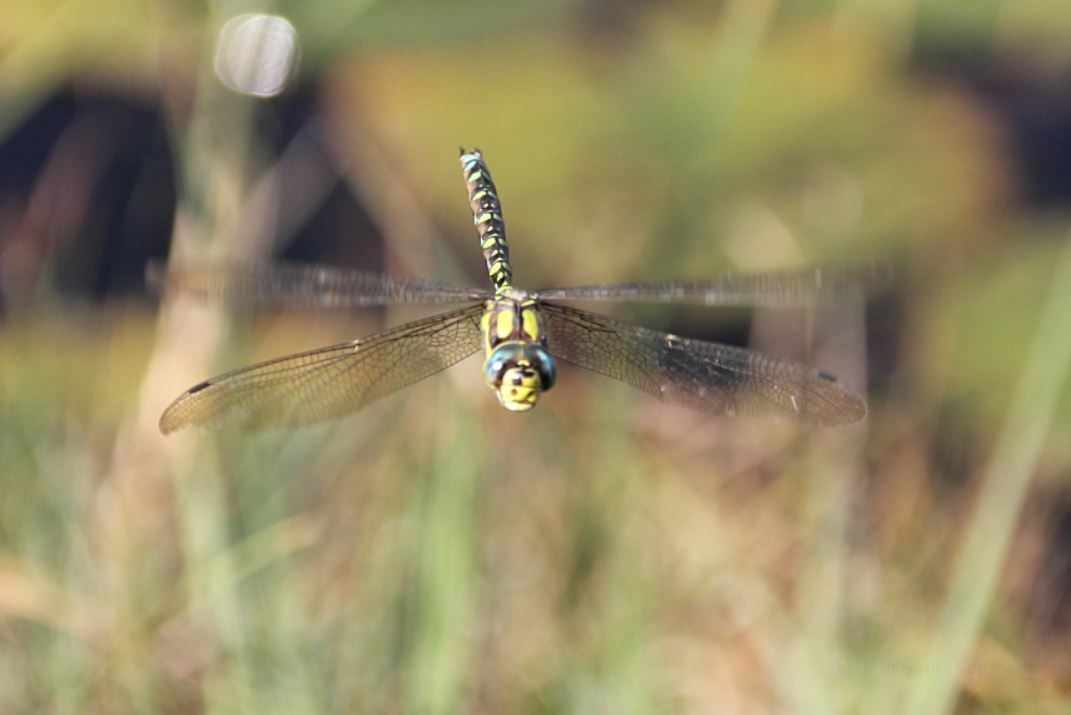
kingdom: Animalia
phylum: Arthropoda
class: Insecta
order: Odonata
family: Aeshnidae
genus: Aeshna
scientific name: Aeshna cyanea
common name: Southern hawker
